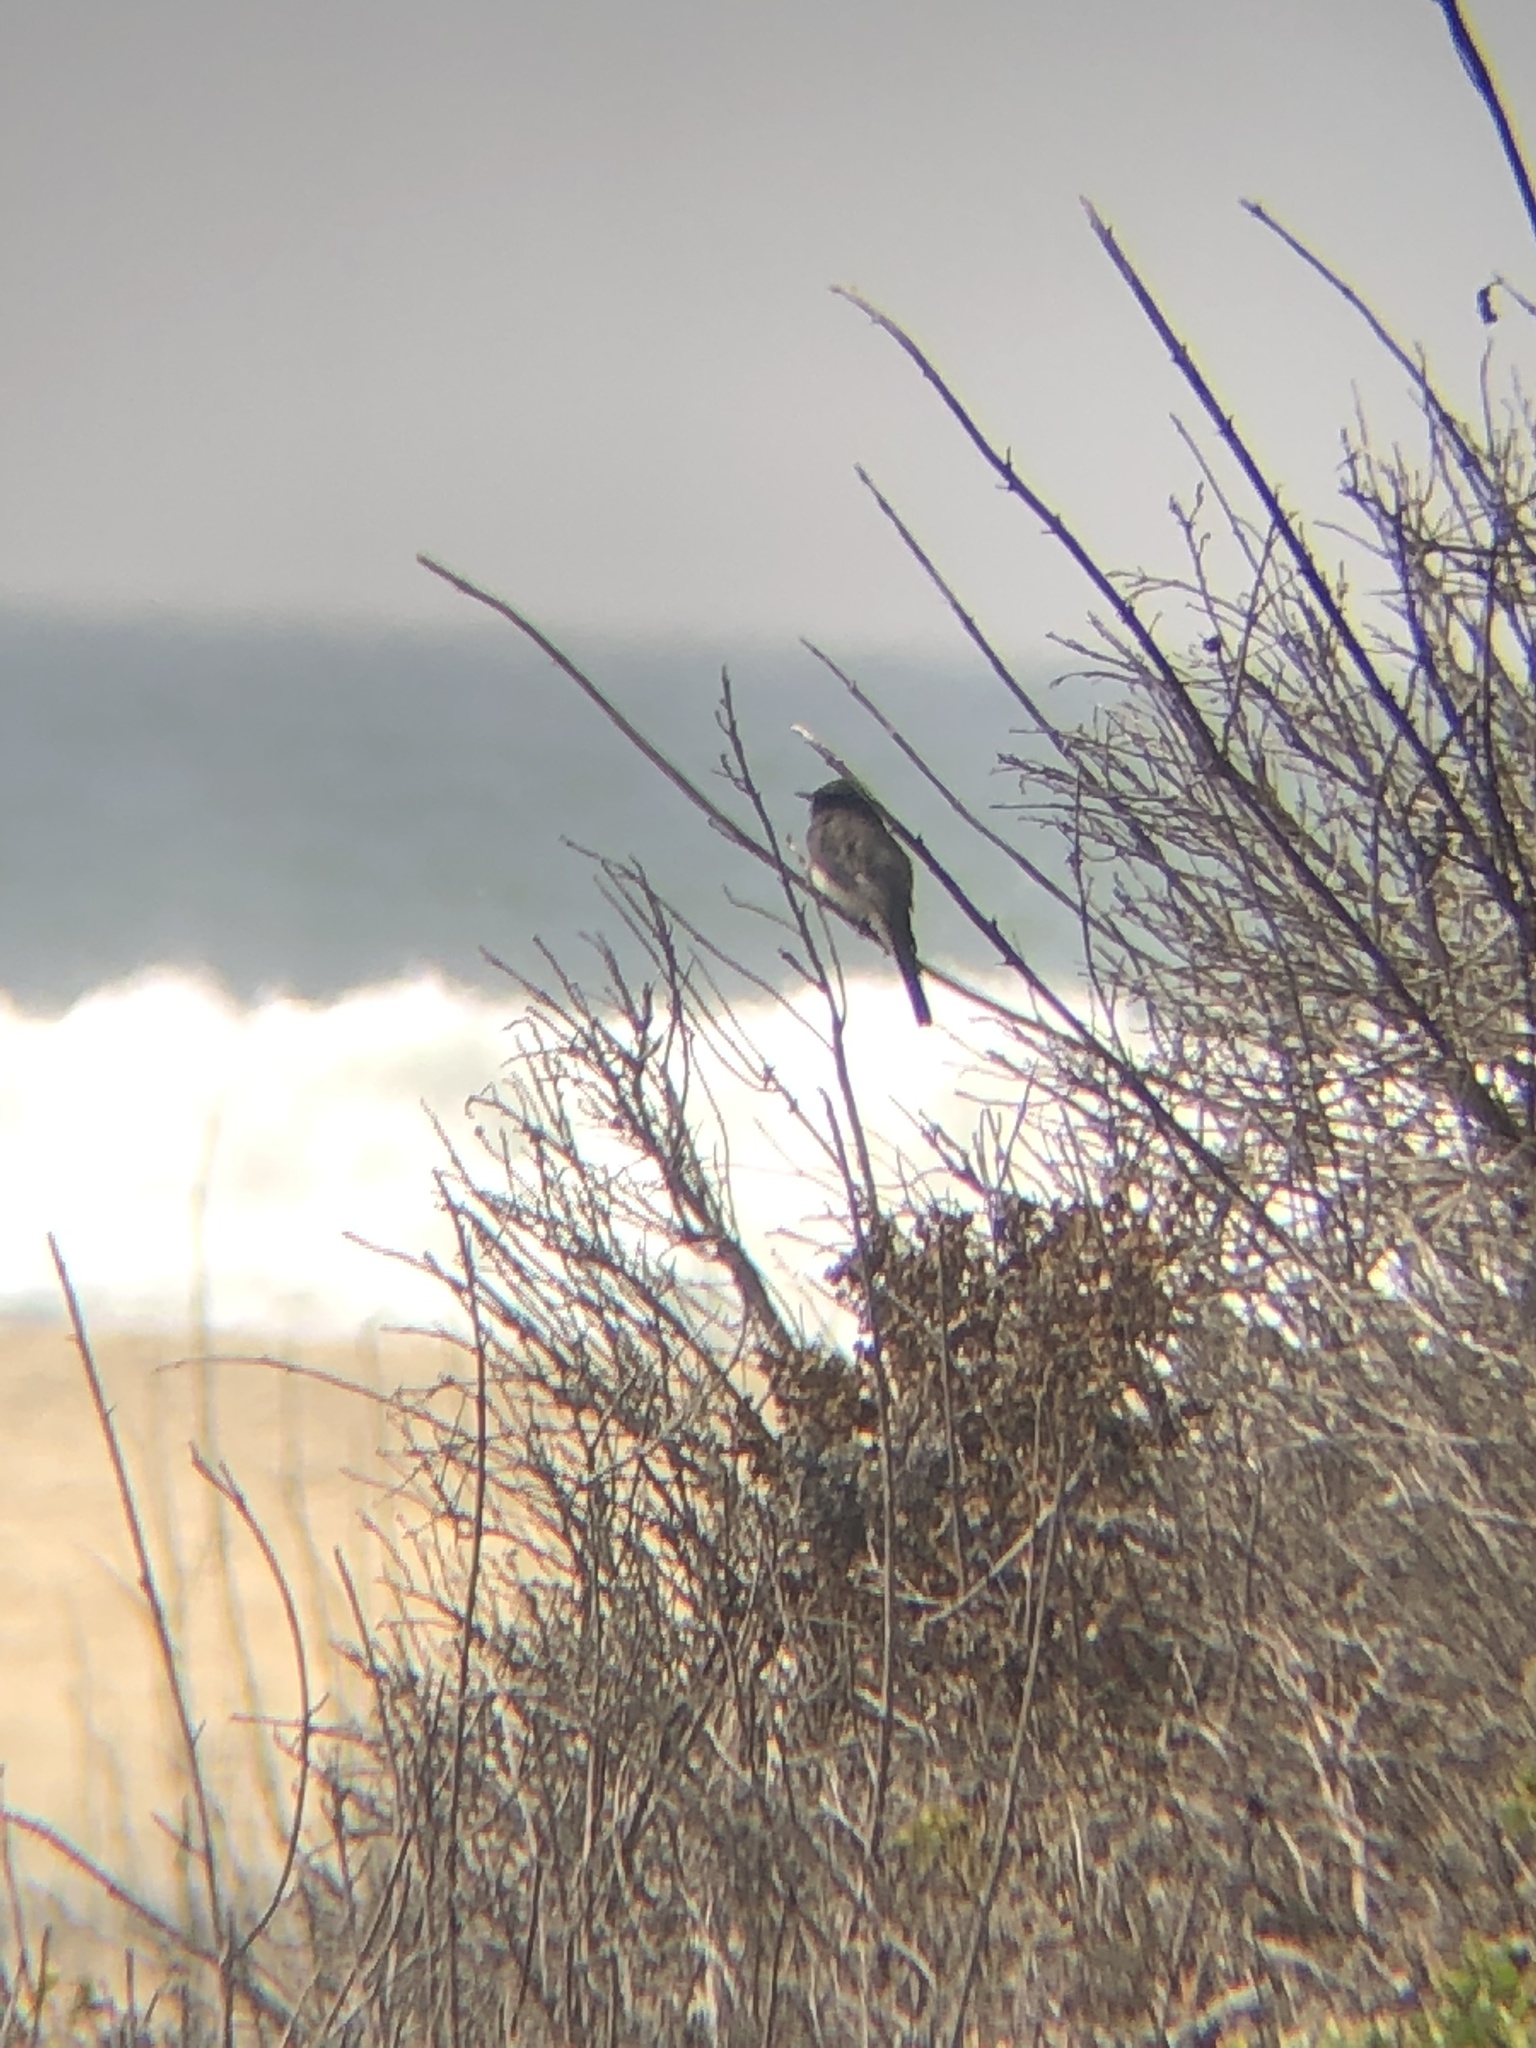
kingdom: Animalia
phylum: Chordata
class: Aves
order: Passeriformes
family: Tyrannidae
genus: Sayornis
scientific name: Sayornis nigricans
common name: Black phoebe
